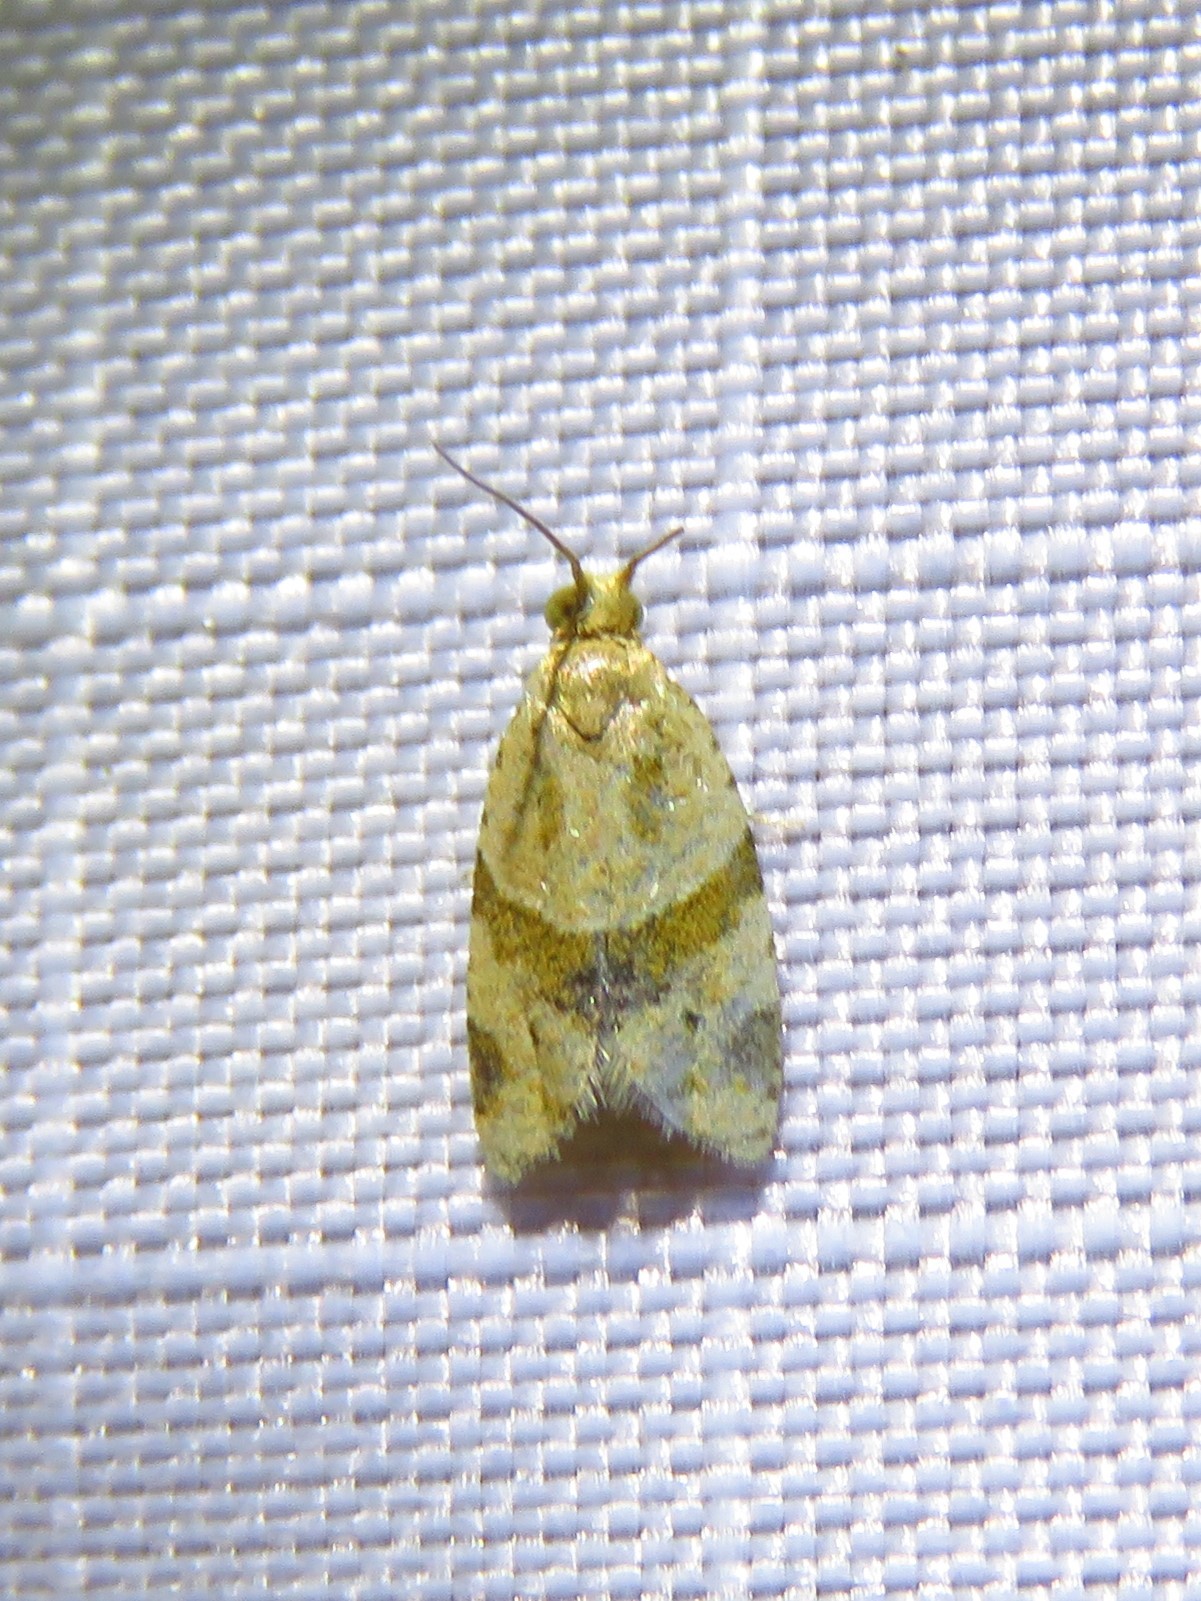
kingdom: Animalia
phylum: Arthropoda
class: Insecta
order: Lepidoptera
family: Tortricidae
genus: Clepsis
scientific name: Clepsis peritana
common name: Garden tortrix
